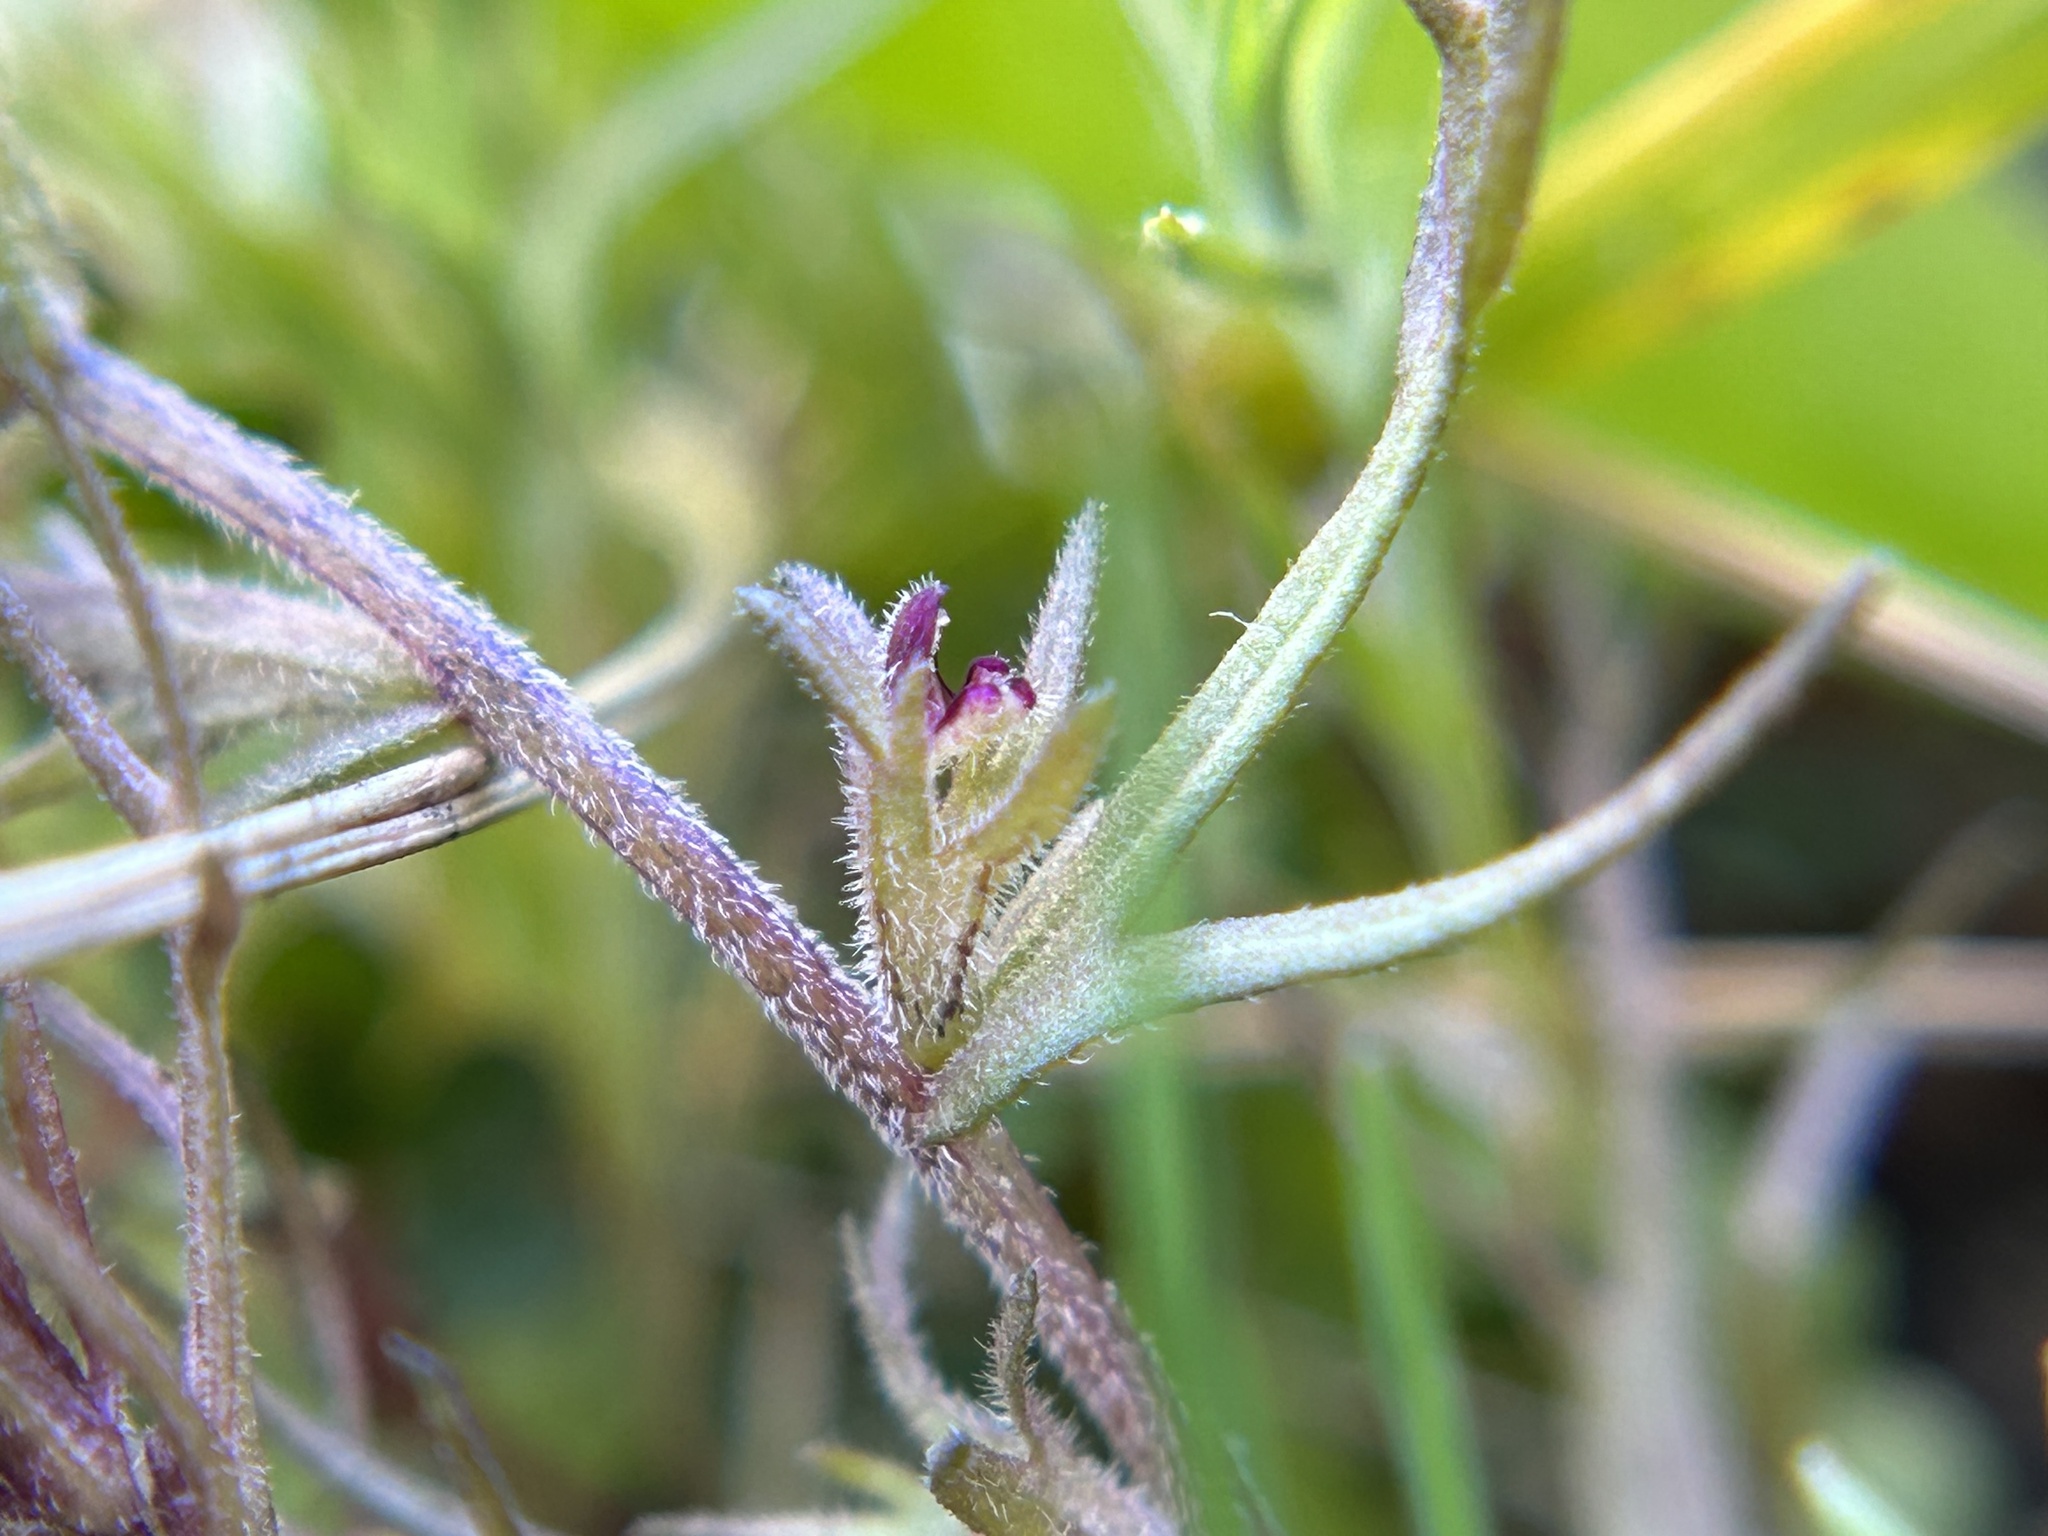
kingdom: Plantae
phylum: Tracheophyta
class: Magnoliopsida
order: Lamiales
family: Orobanchaceae
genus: Triphysaria
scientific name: Triphysaria pusilla
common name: Dwarf false owl-clover
